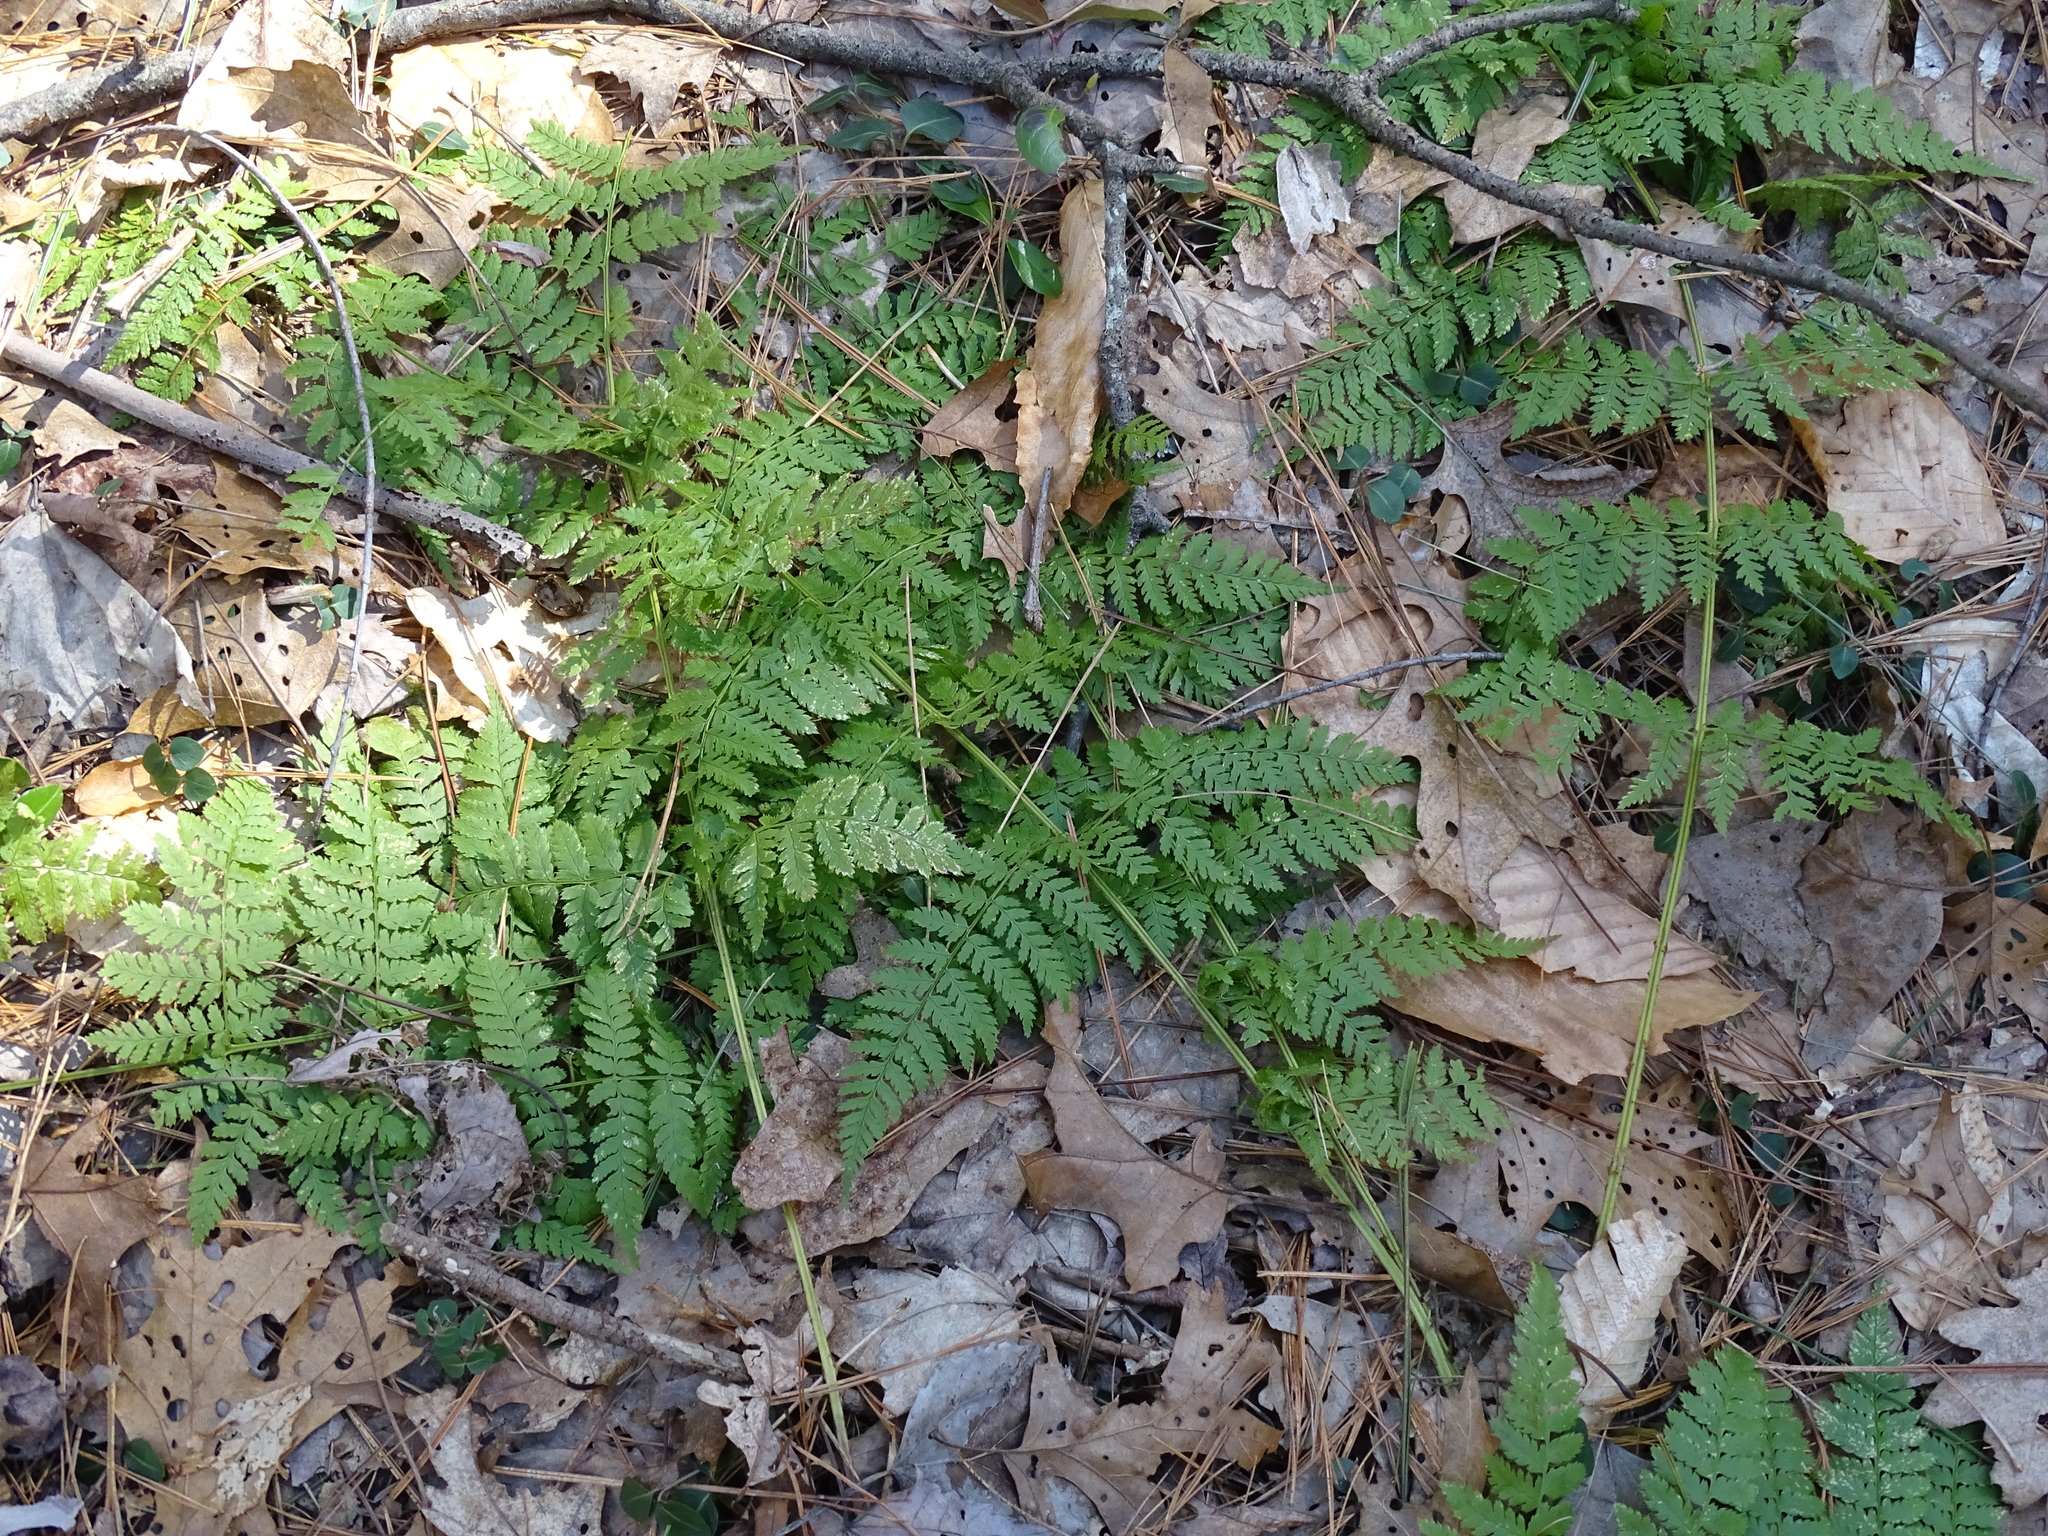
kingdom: Plantae
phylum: Tracheophyta
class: Polypodiopsida
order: Polypodiales
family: Dryopteridaceae
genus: Dryopteris
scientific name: Dryopteris intermedia
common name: Evergreen wood fern
